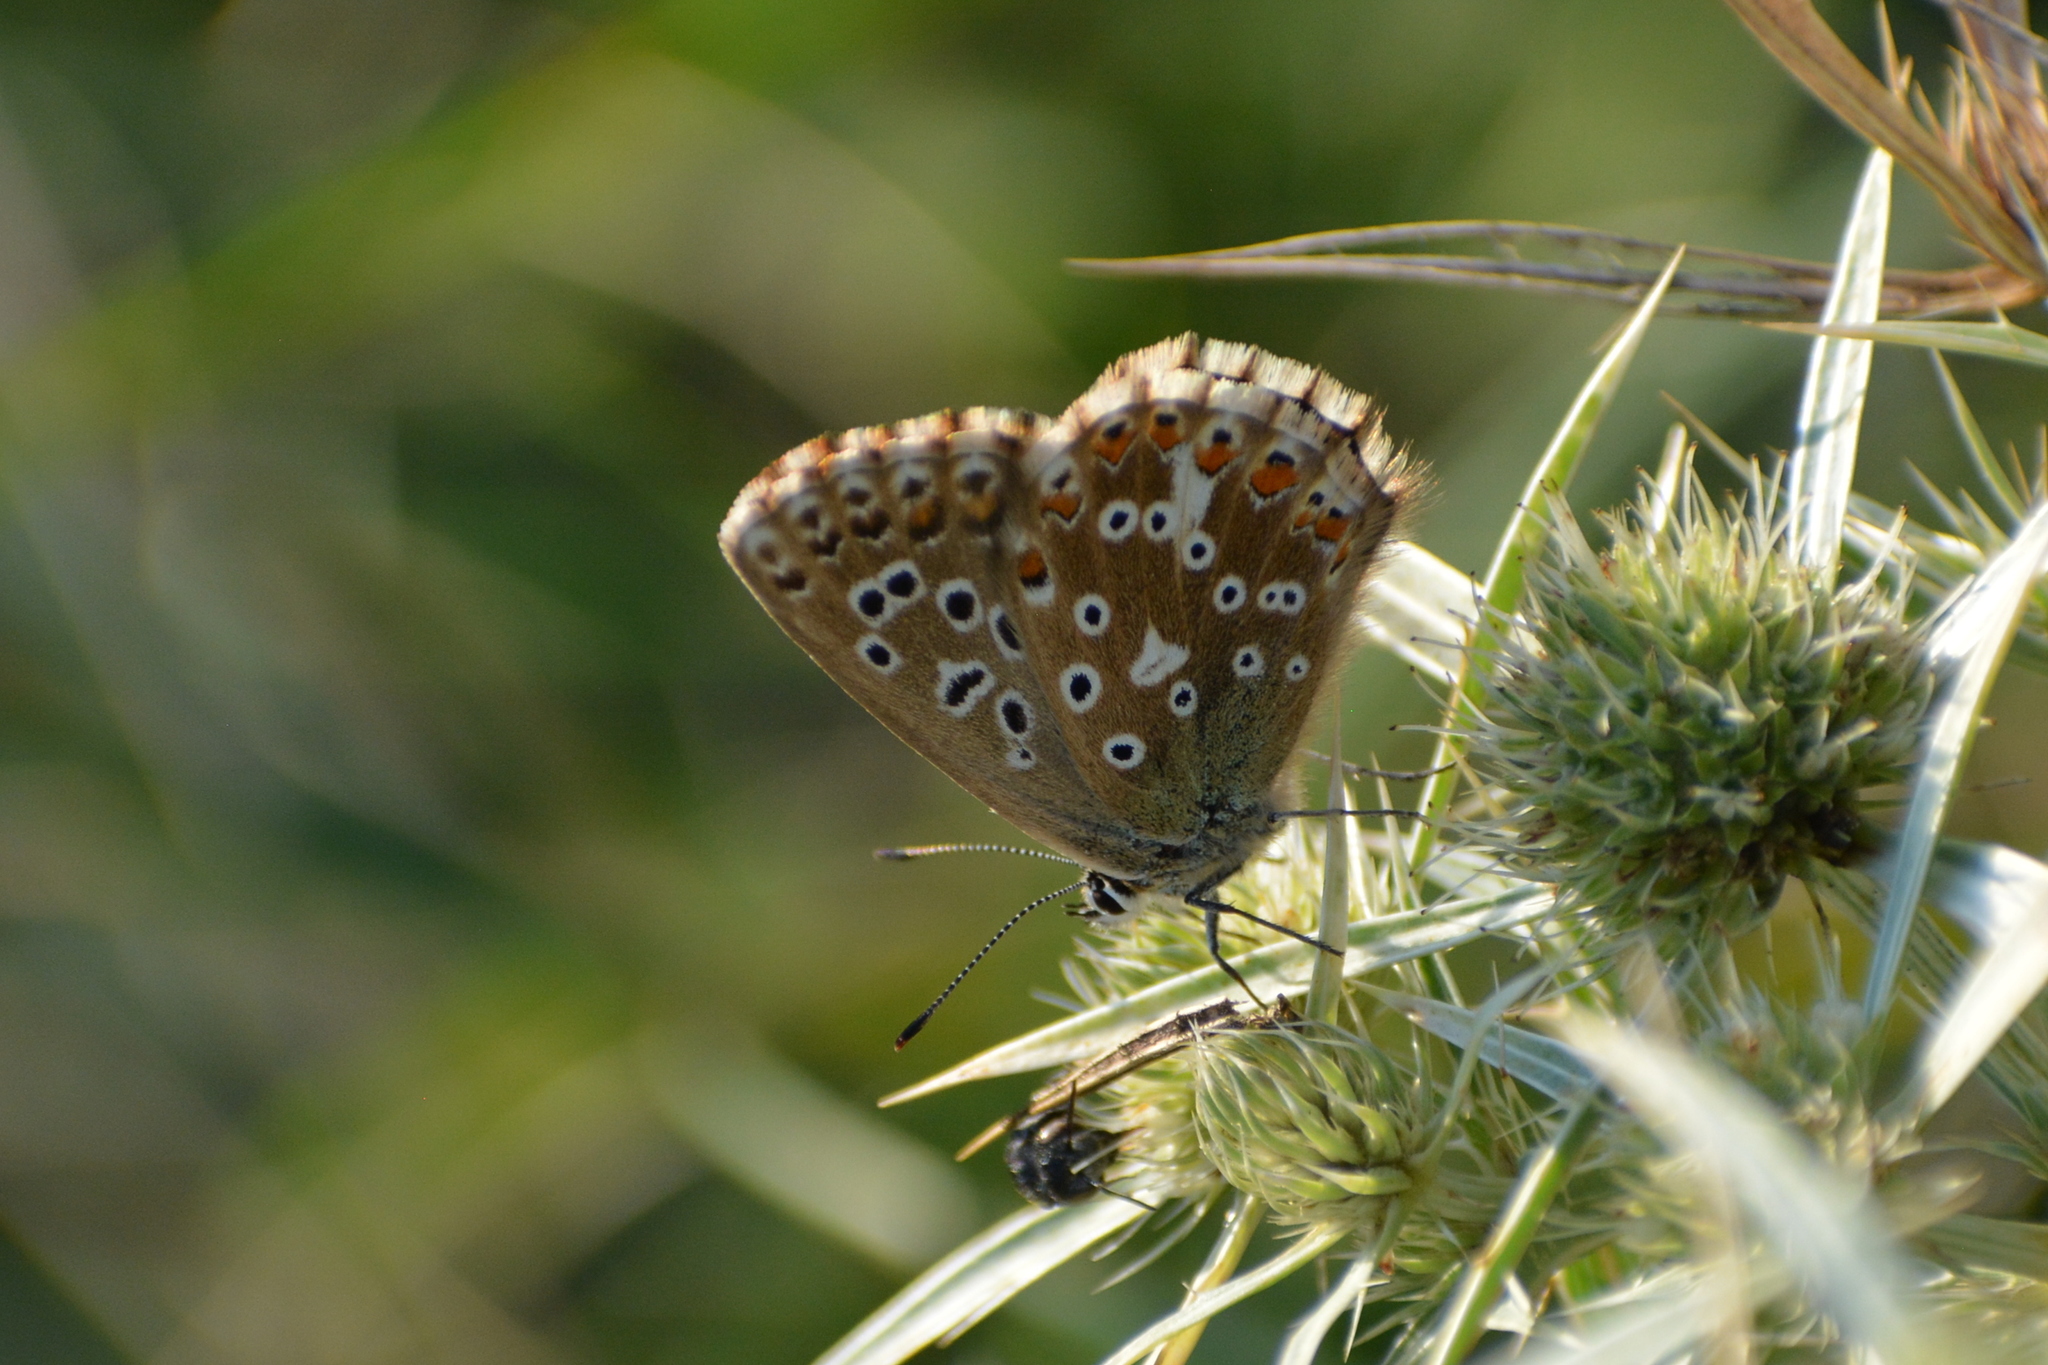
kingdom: Animalia
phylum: Arthropoda
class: Insecta
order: Lepidoptera
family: Lycaenidae
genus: Lysandra
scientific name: Lysandra coridon
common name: Chalkhill blue
